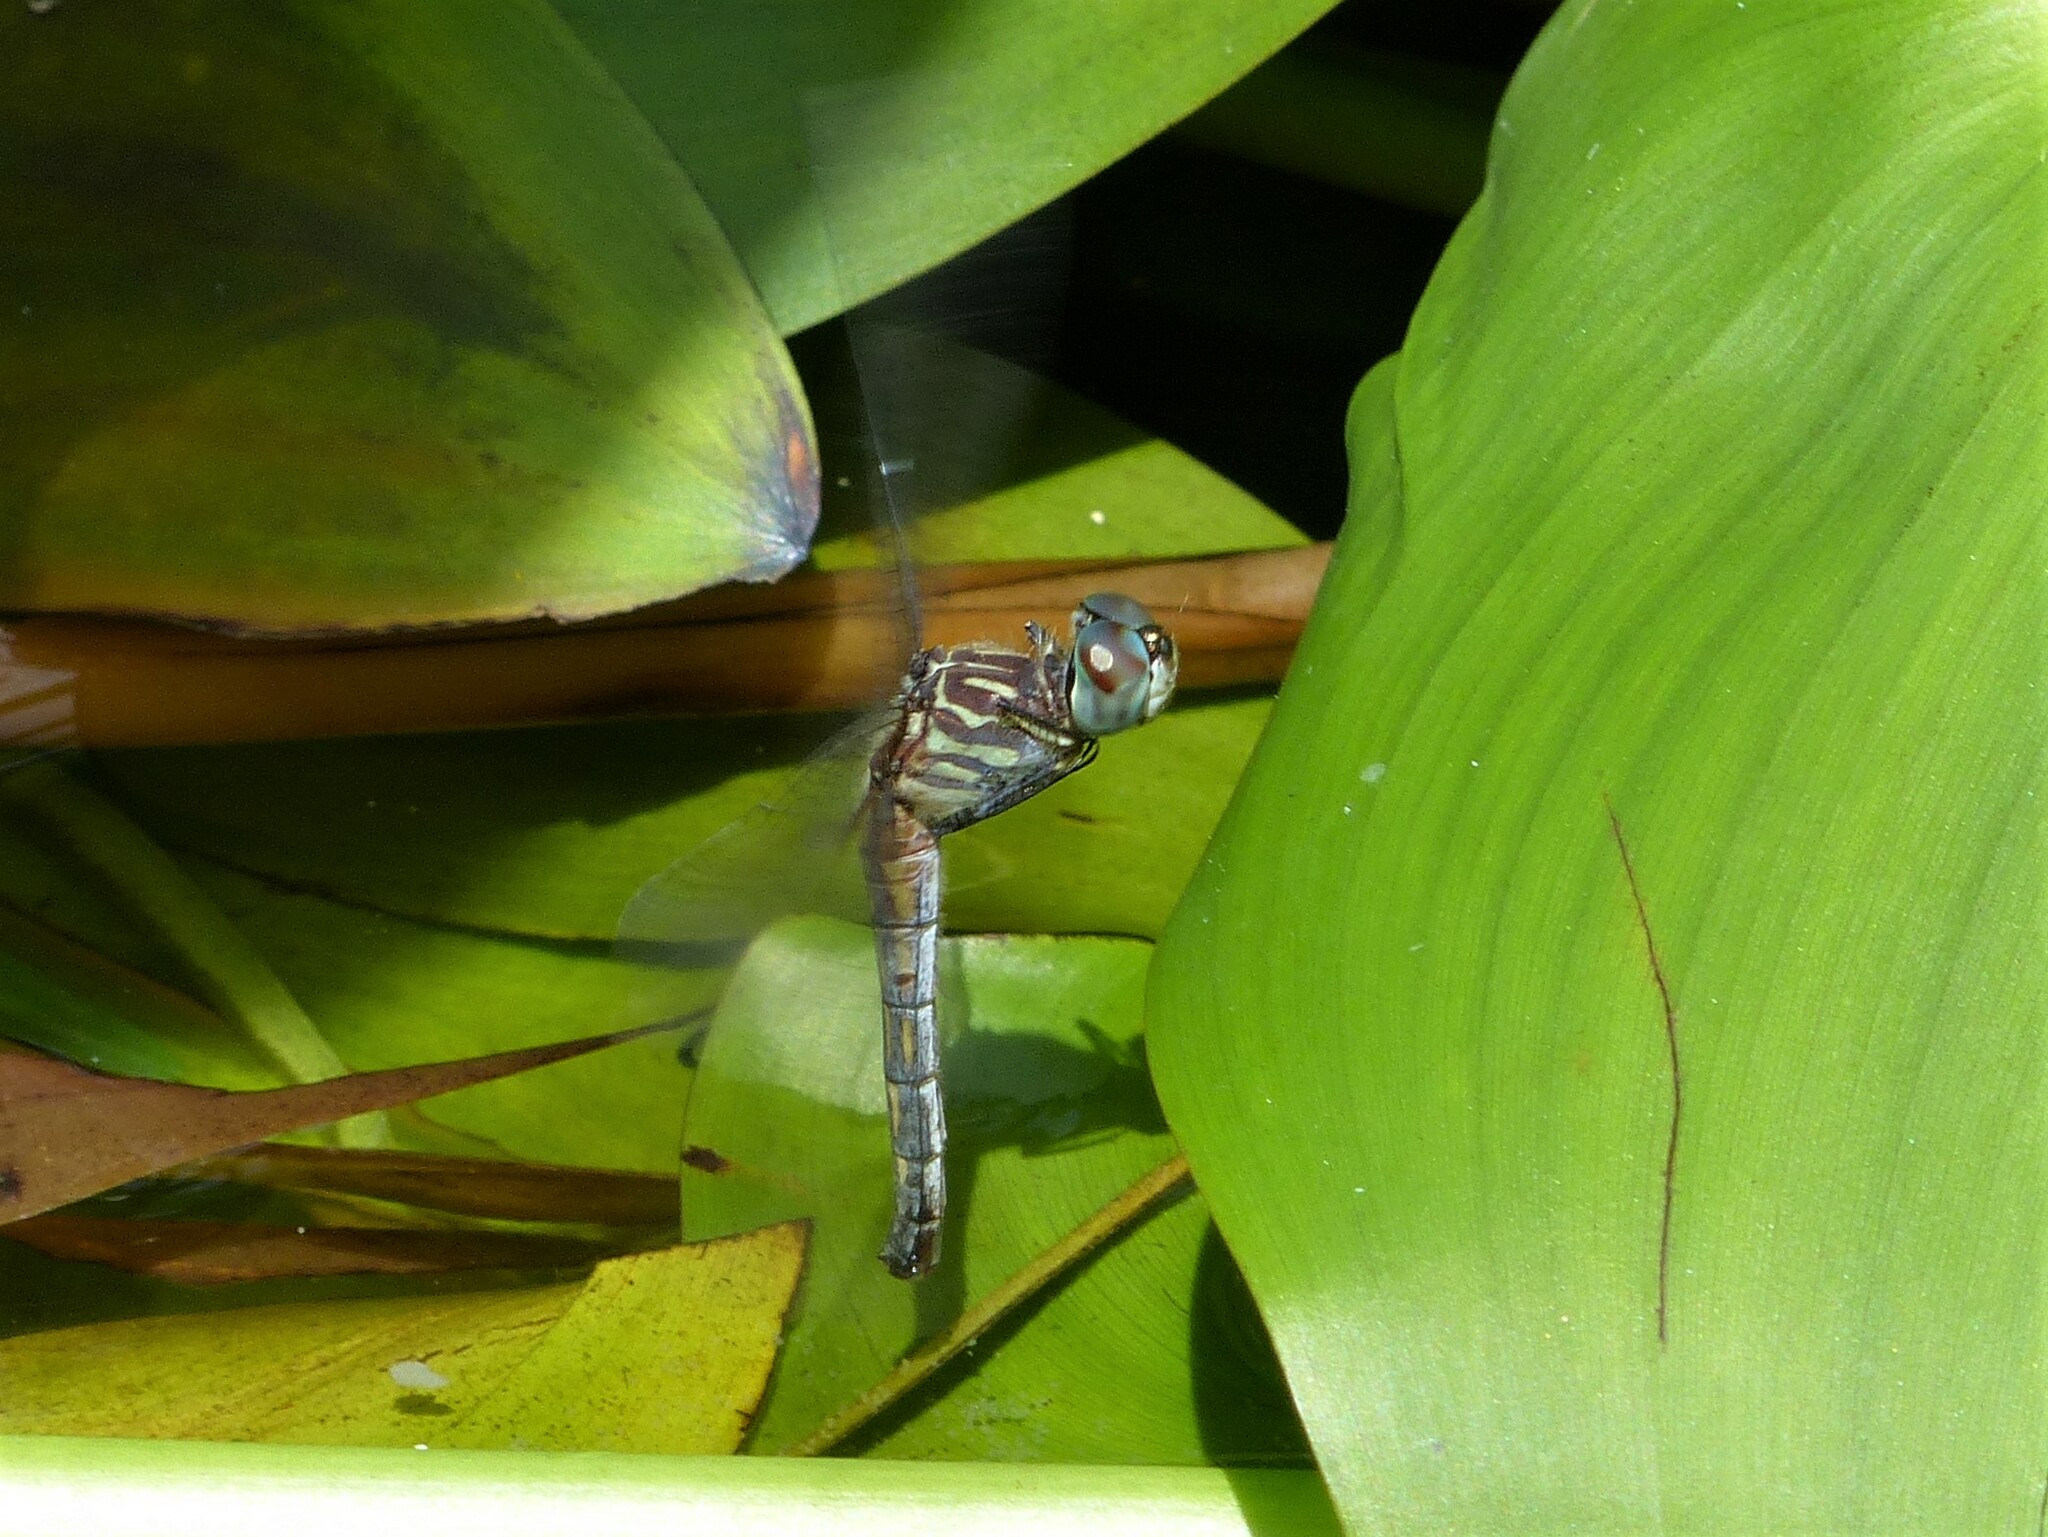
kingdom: Animalia
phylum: Arthropoda
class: Insecta
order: Odonata
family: Libellulidae
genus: Pachydiplax
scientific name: Pachydiplax longipennis
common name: Blue dasher
